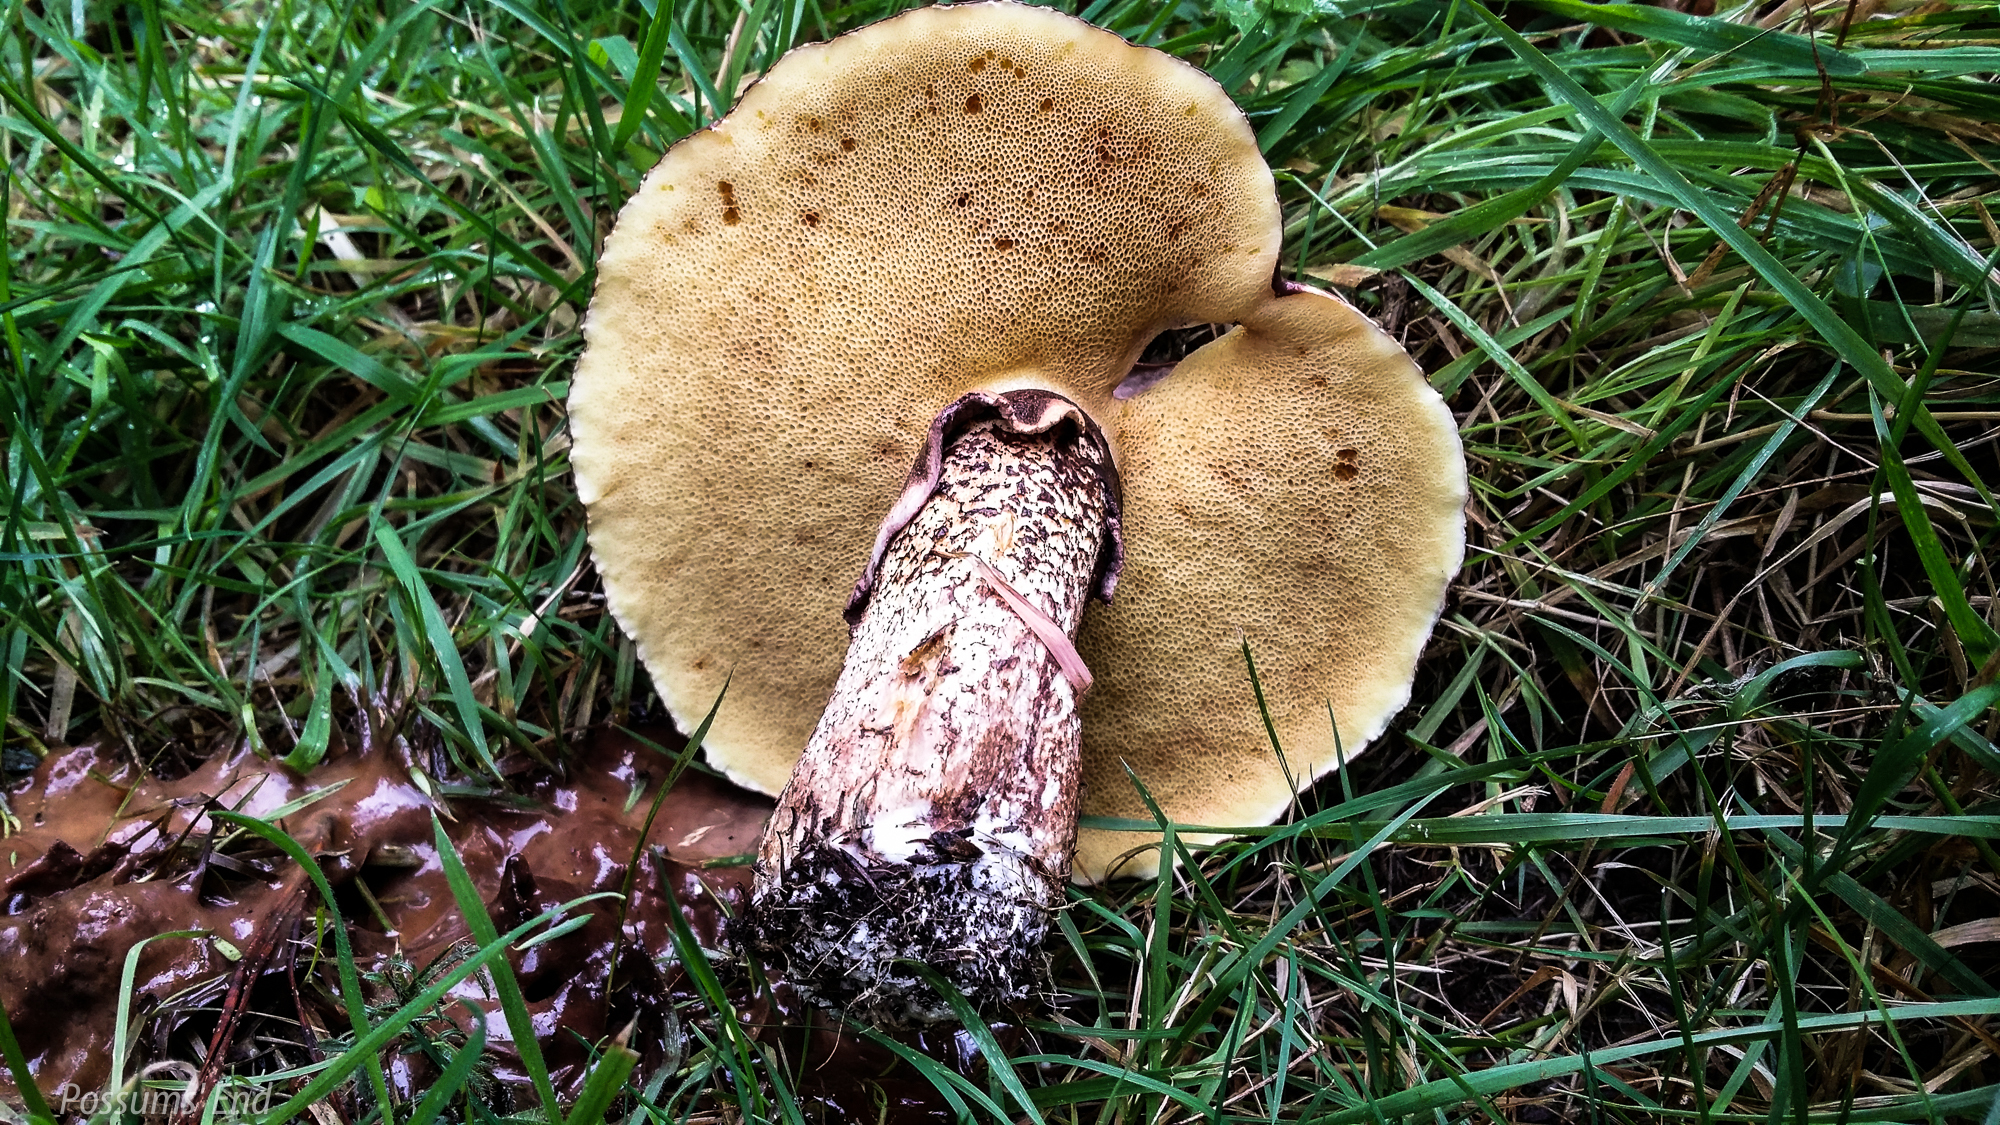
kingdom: Fungi
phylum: Basidiomycota
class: Agaricomycetes
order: Boletales
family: Suillaceae
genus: Suillus
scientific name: Suillus luteus
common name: Slippery jack
